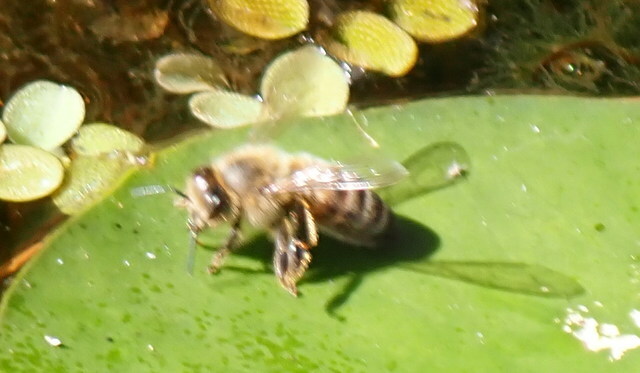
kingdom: Animalia
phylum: Arthropoda
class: Insecta
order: Hymenoptera
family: Apidae
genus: Apis
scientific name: Apis mellifera
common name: Honey bee
